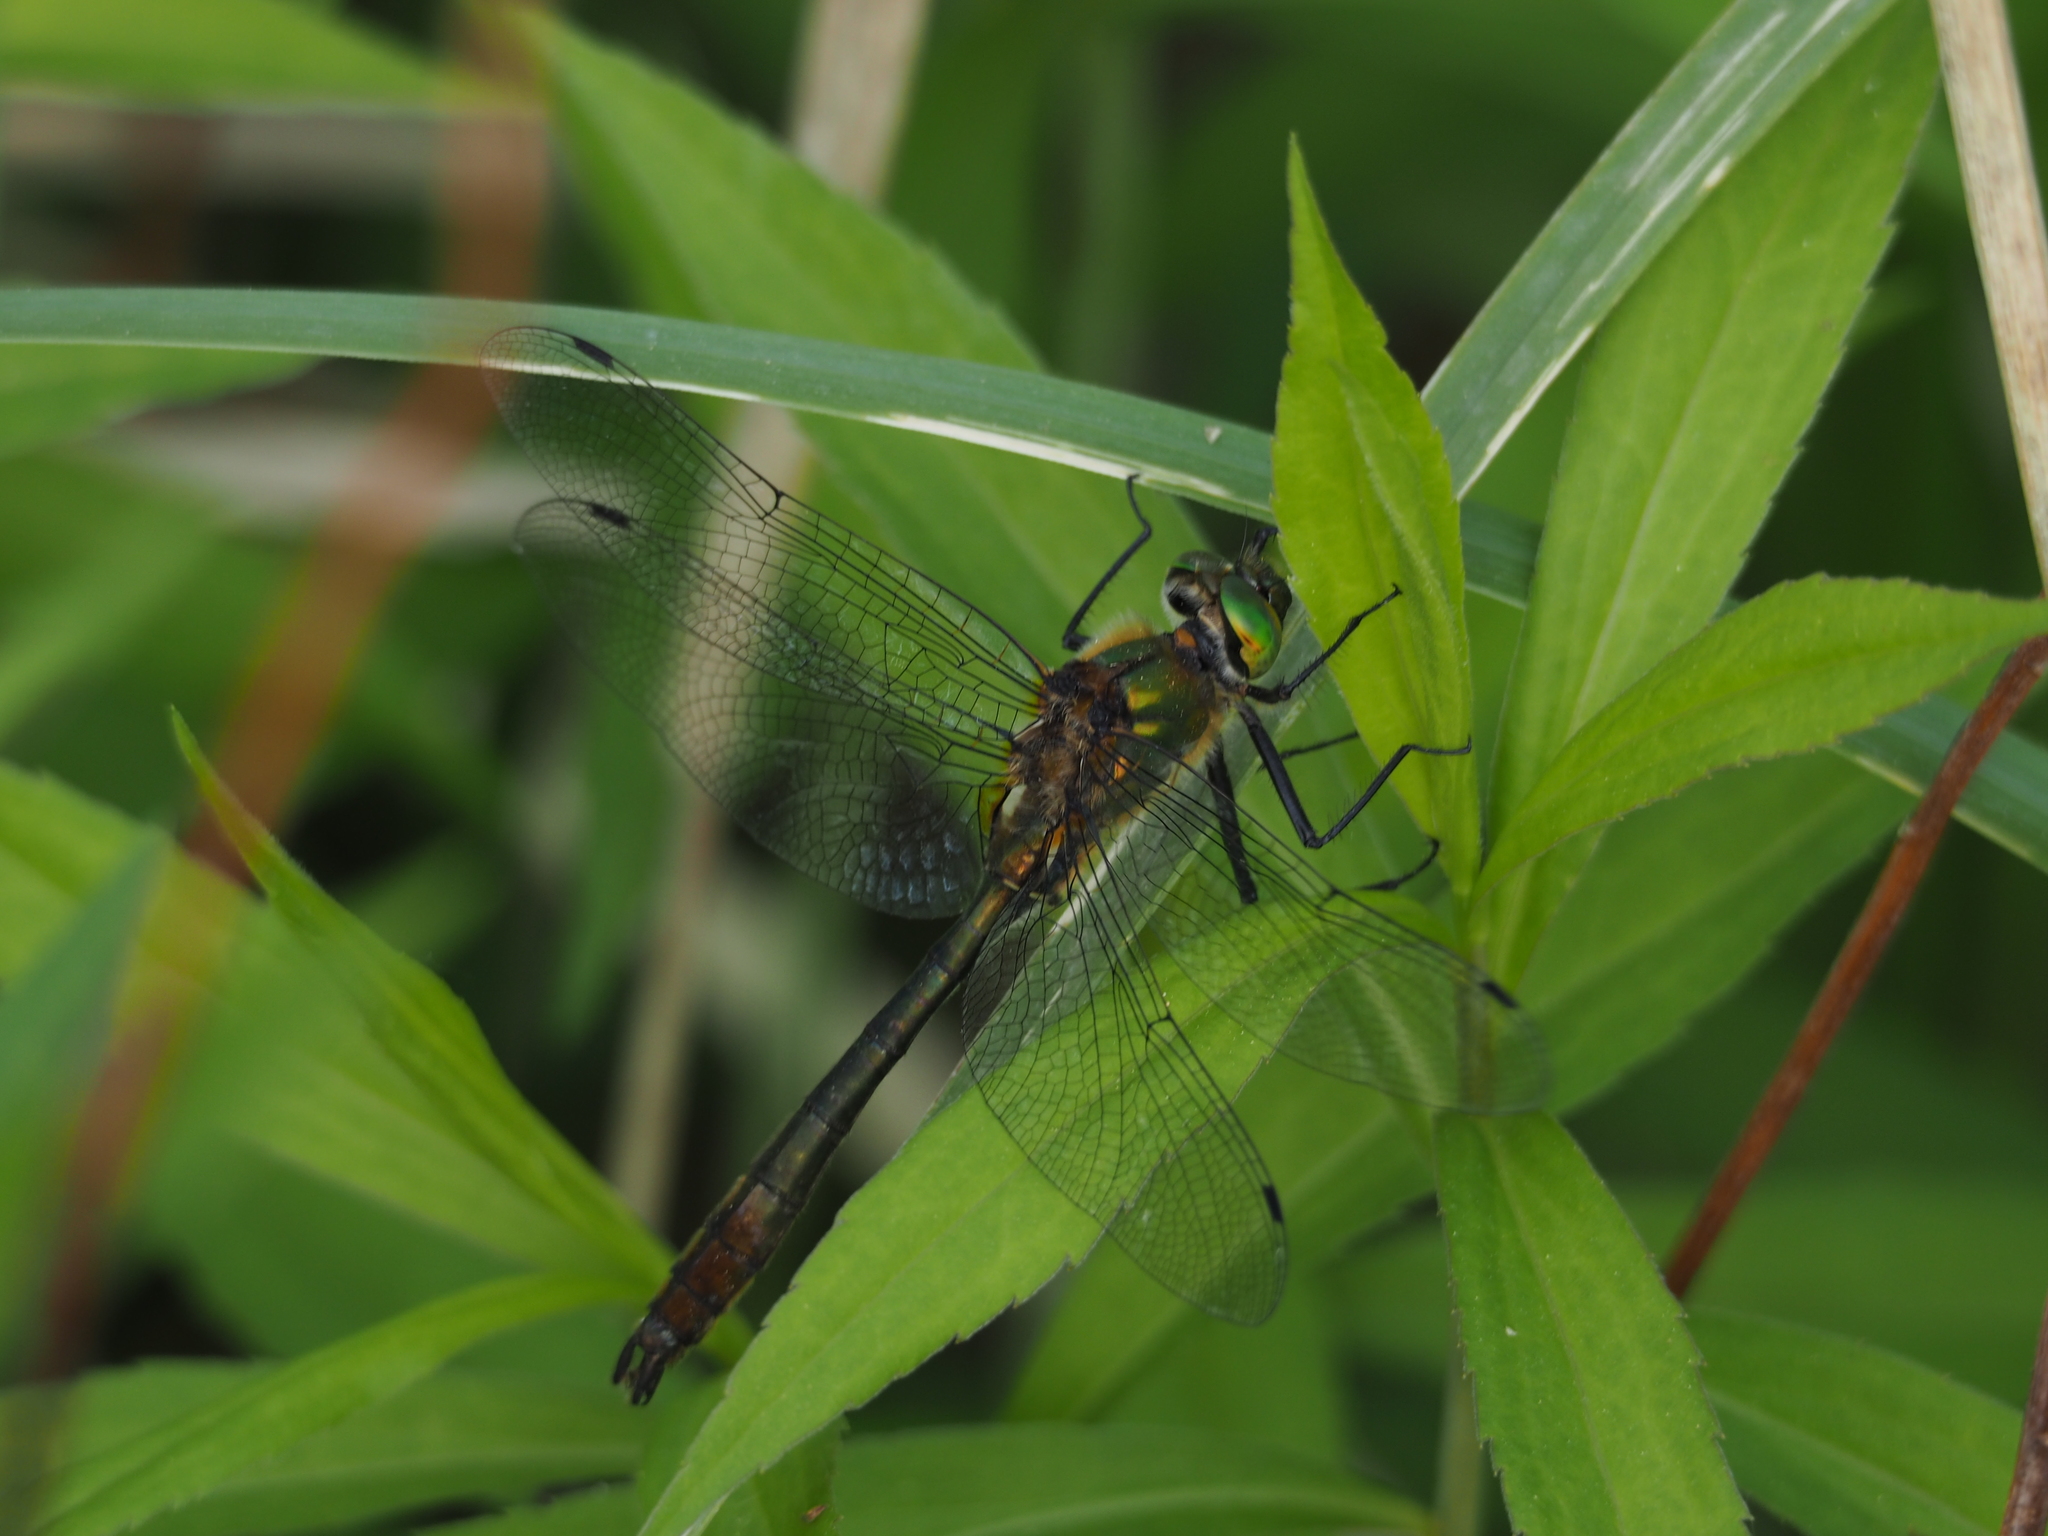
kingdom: Animalia
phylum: Arthropoda
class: Insecta
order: Odonata
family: Corduliidae
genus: Cordulia
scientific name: Cordulia aenea
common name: Downy emerald
